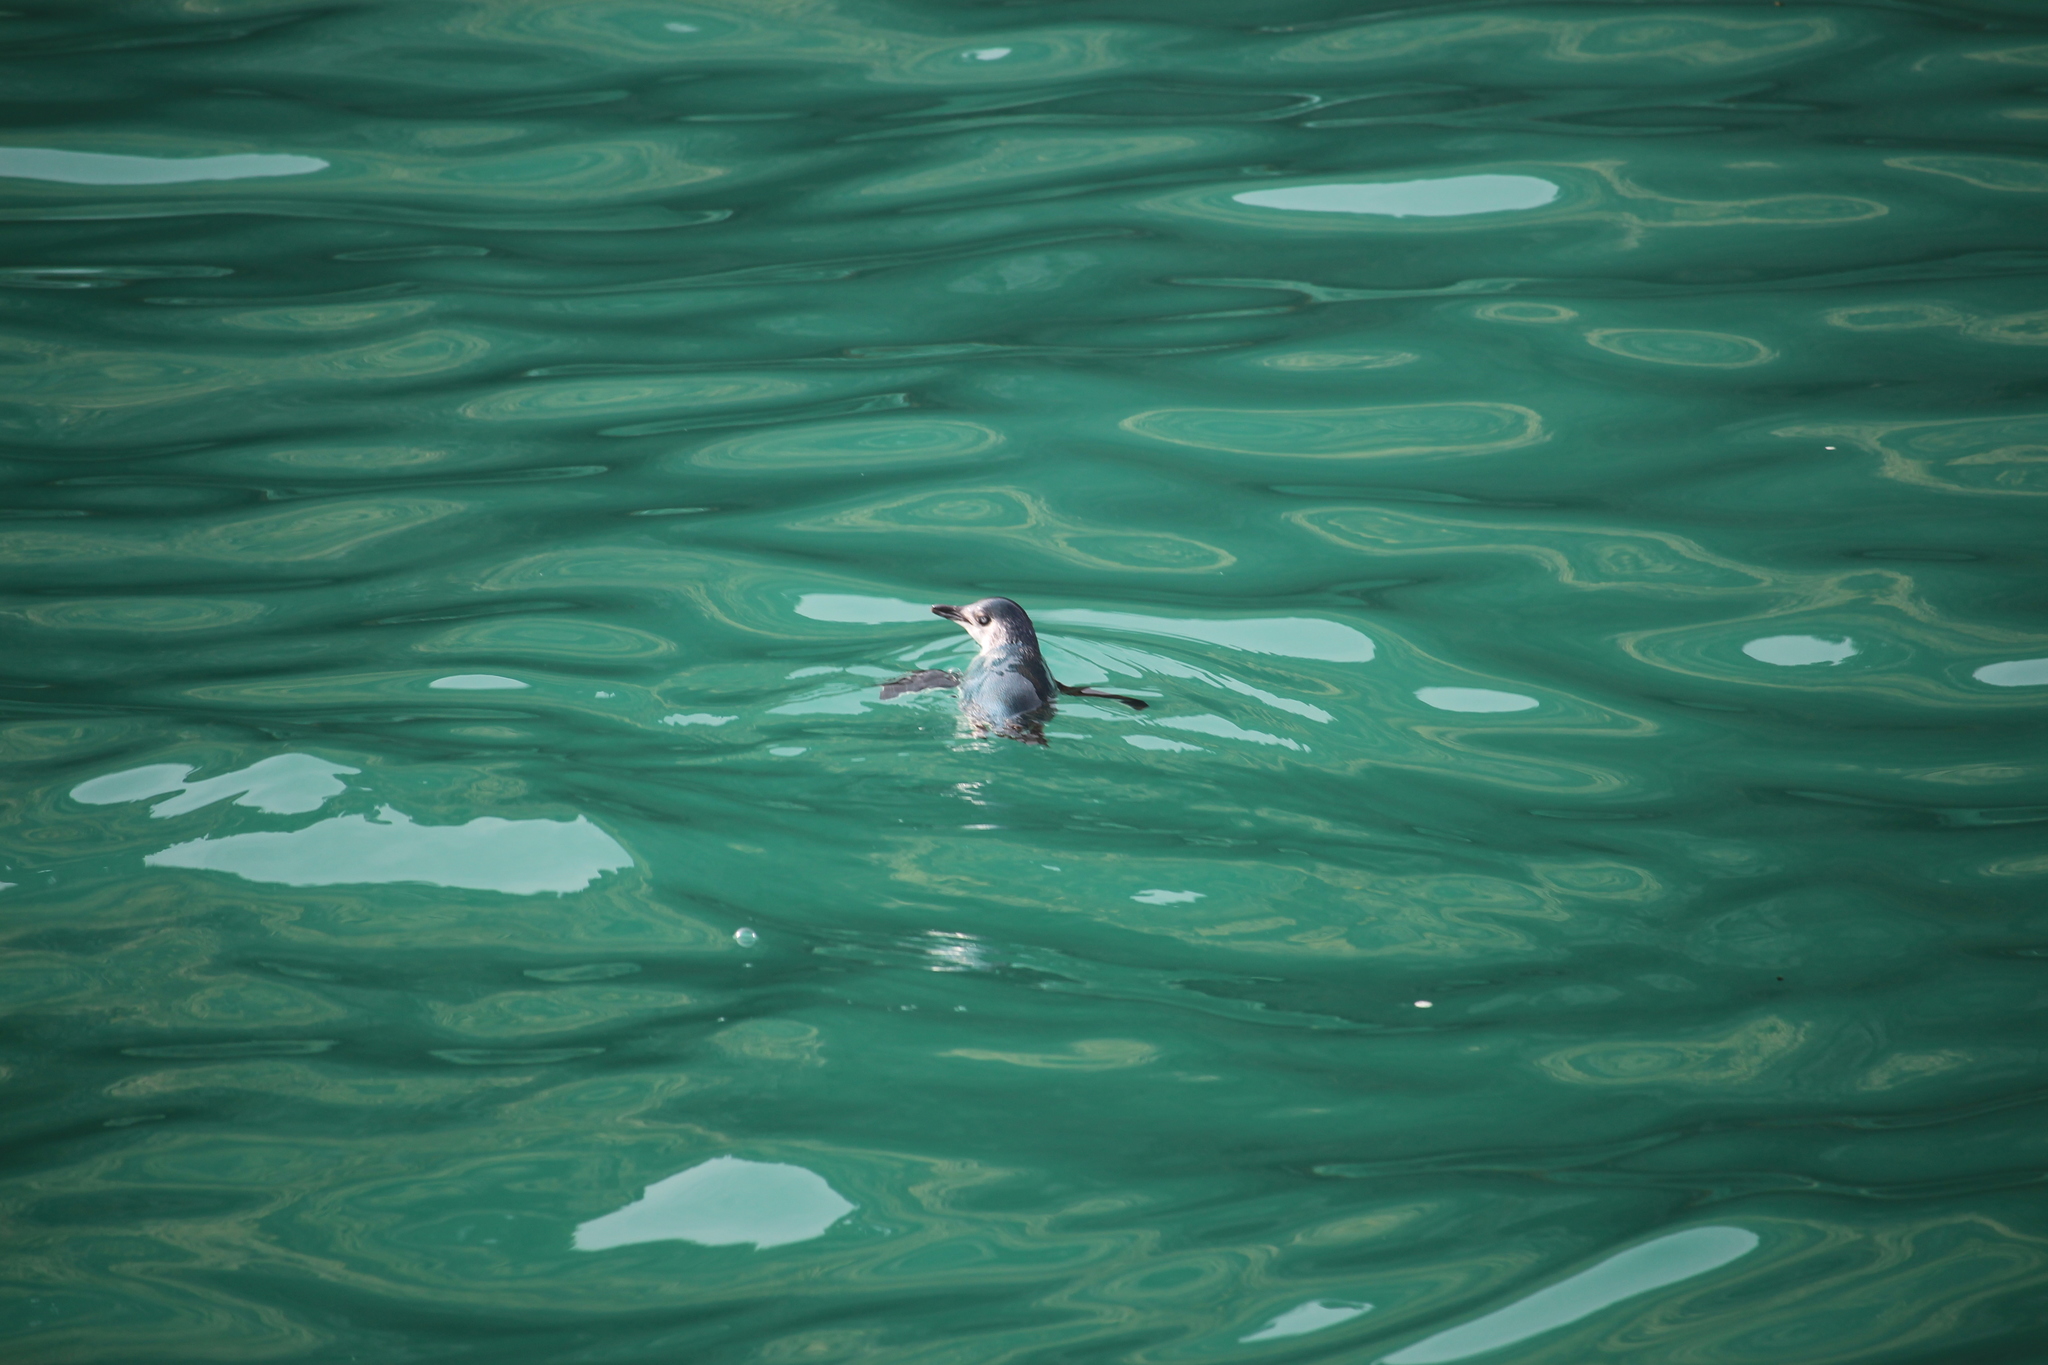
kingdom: Animalia
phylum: Chordata
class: Aves
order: Sphenisciformes
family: Spheniscidae
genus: Eudyptula
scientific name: Eudyptula minor
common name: Little penguin
